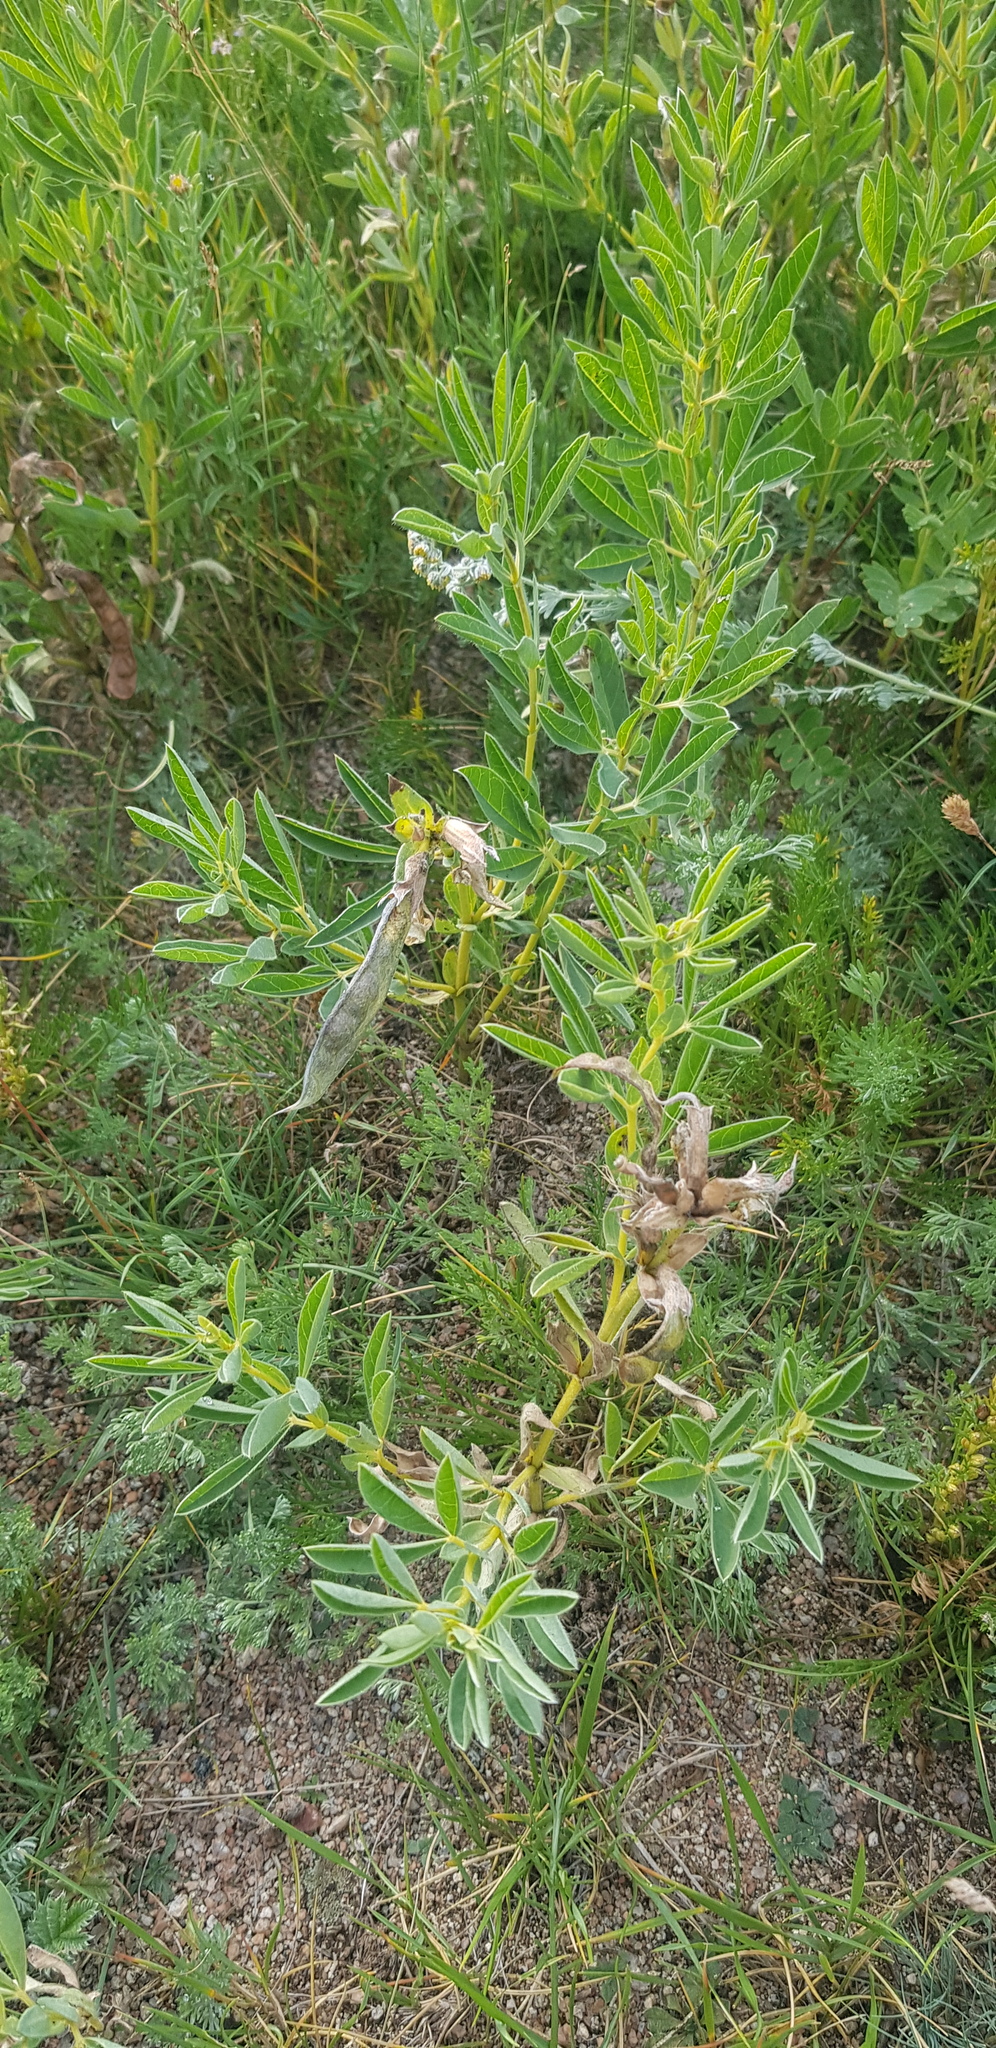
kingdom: Plantae
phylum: Tracheophyta
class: Magnoliopsida
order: Fabales
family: Fabaceae
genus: Thermopsis
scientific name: Thermopsis lanceolata
